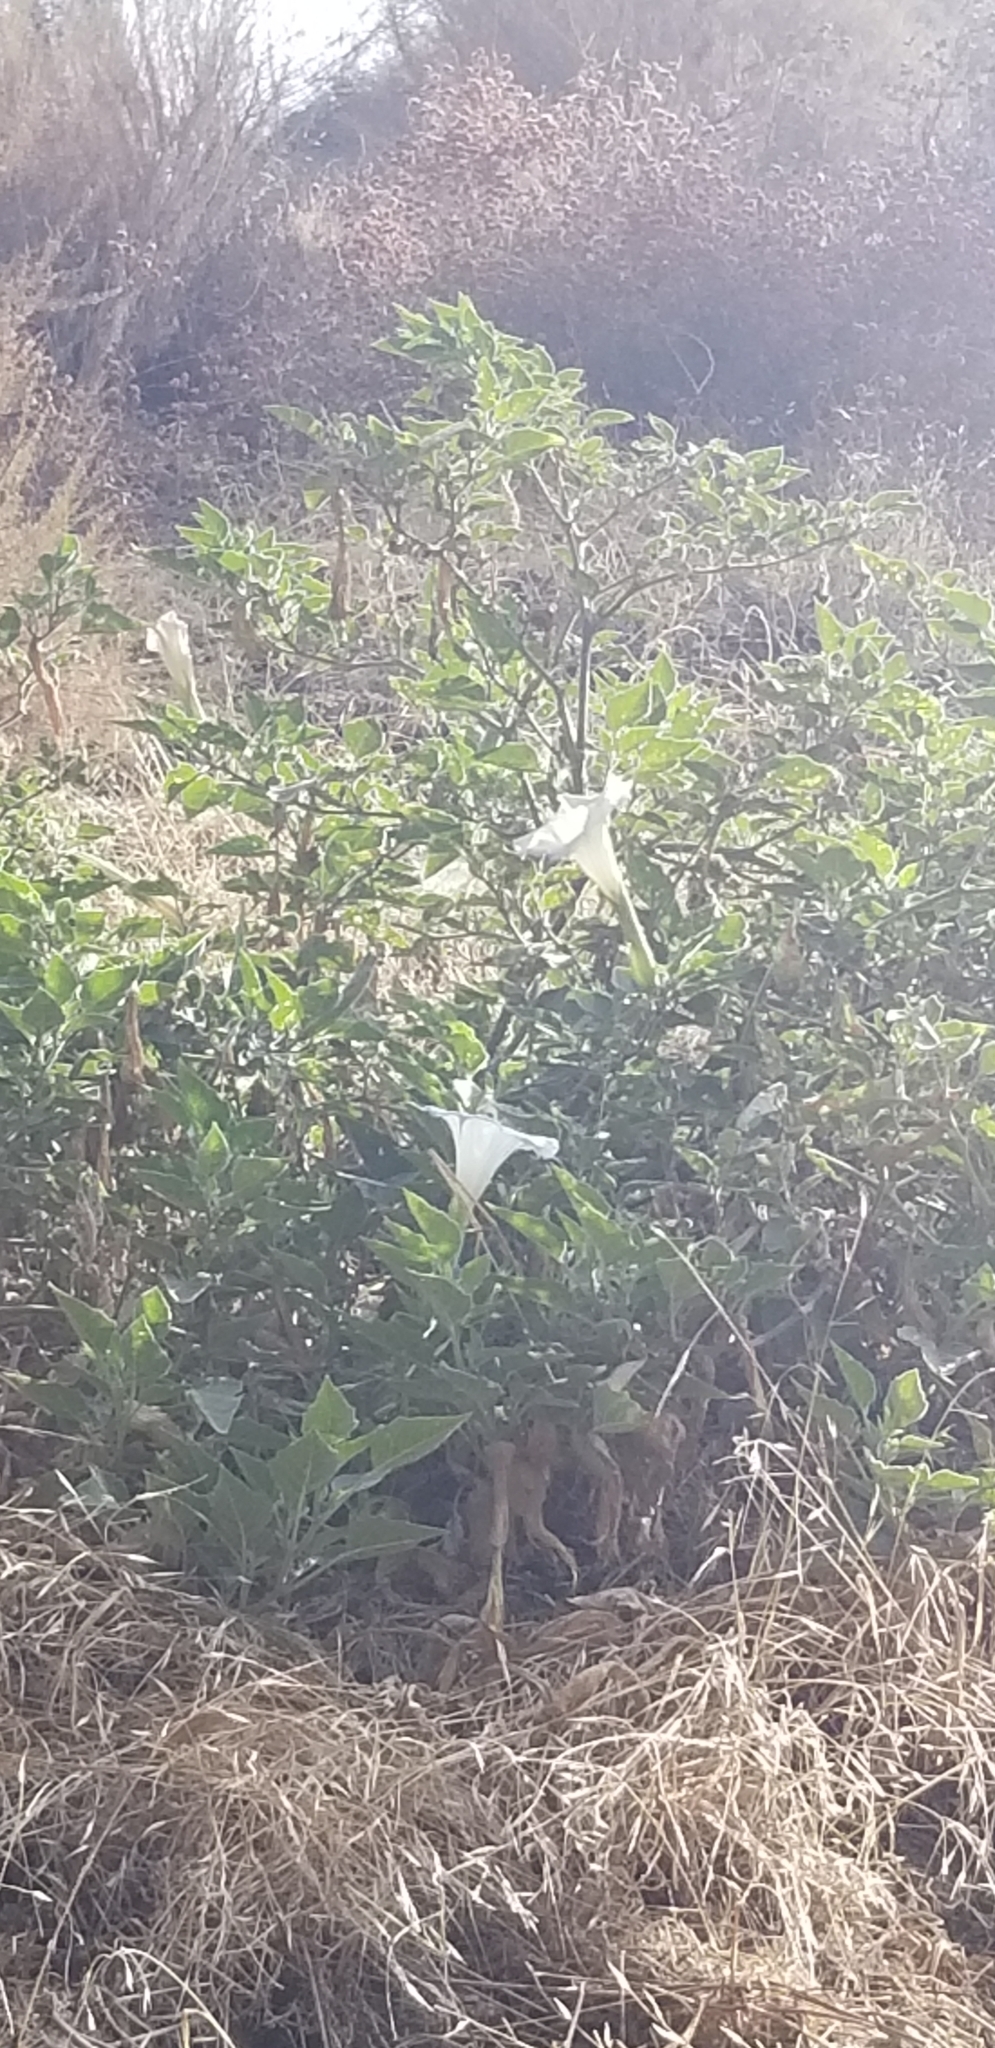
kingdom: Plantae
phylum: Tracheophyta
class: Magnoliopsida
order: Solanales
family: Solanaceae
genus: Datura
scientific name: Datura wrightii
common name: Sacred thorn-apple
